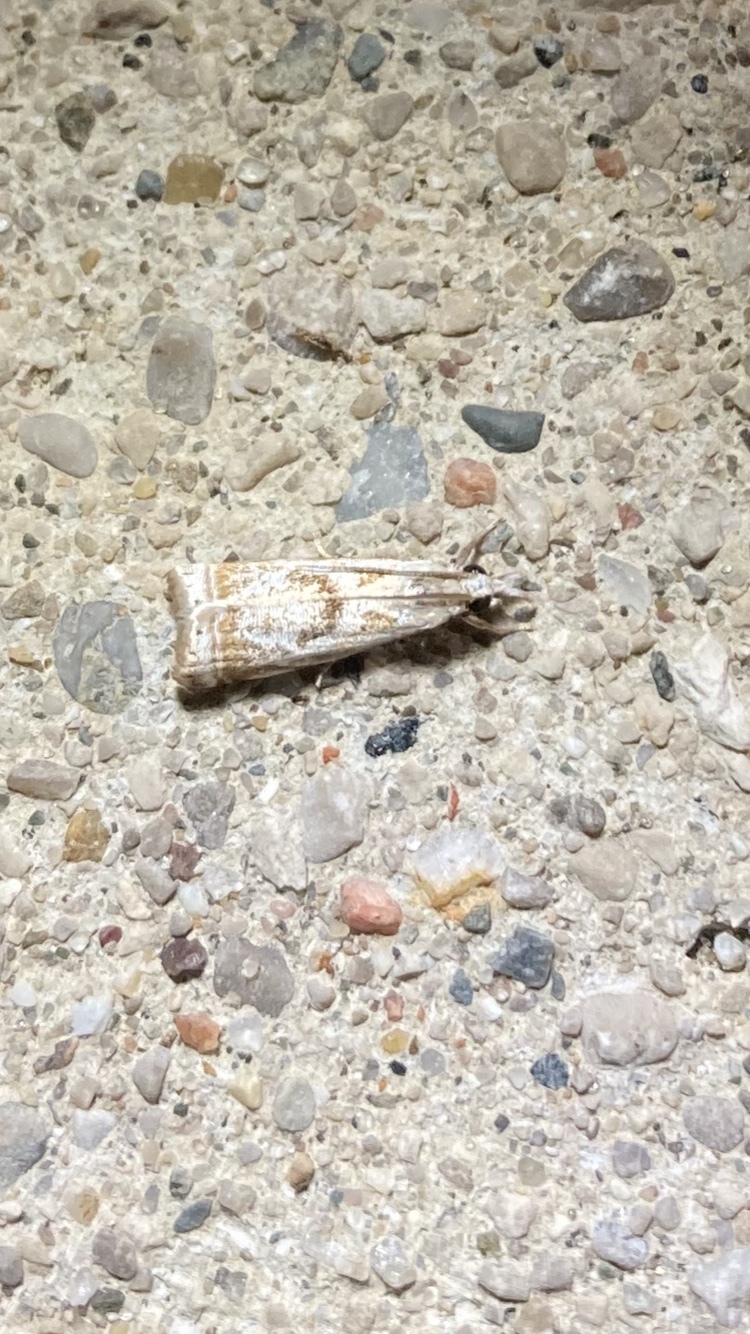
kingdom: Animalia
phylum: Arthropoda
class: Insecta
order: Lepidoptera
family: Crambidae
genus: Microcrambus
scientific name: Microcrambus elegans
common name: Elegant grass-veneer
